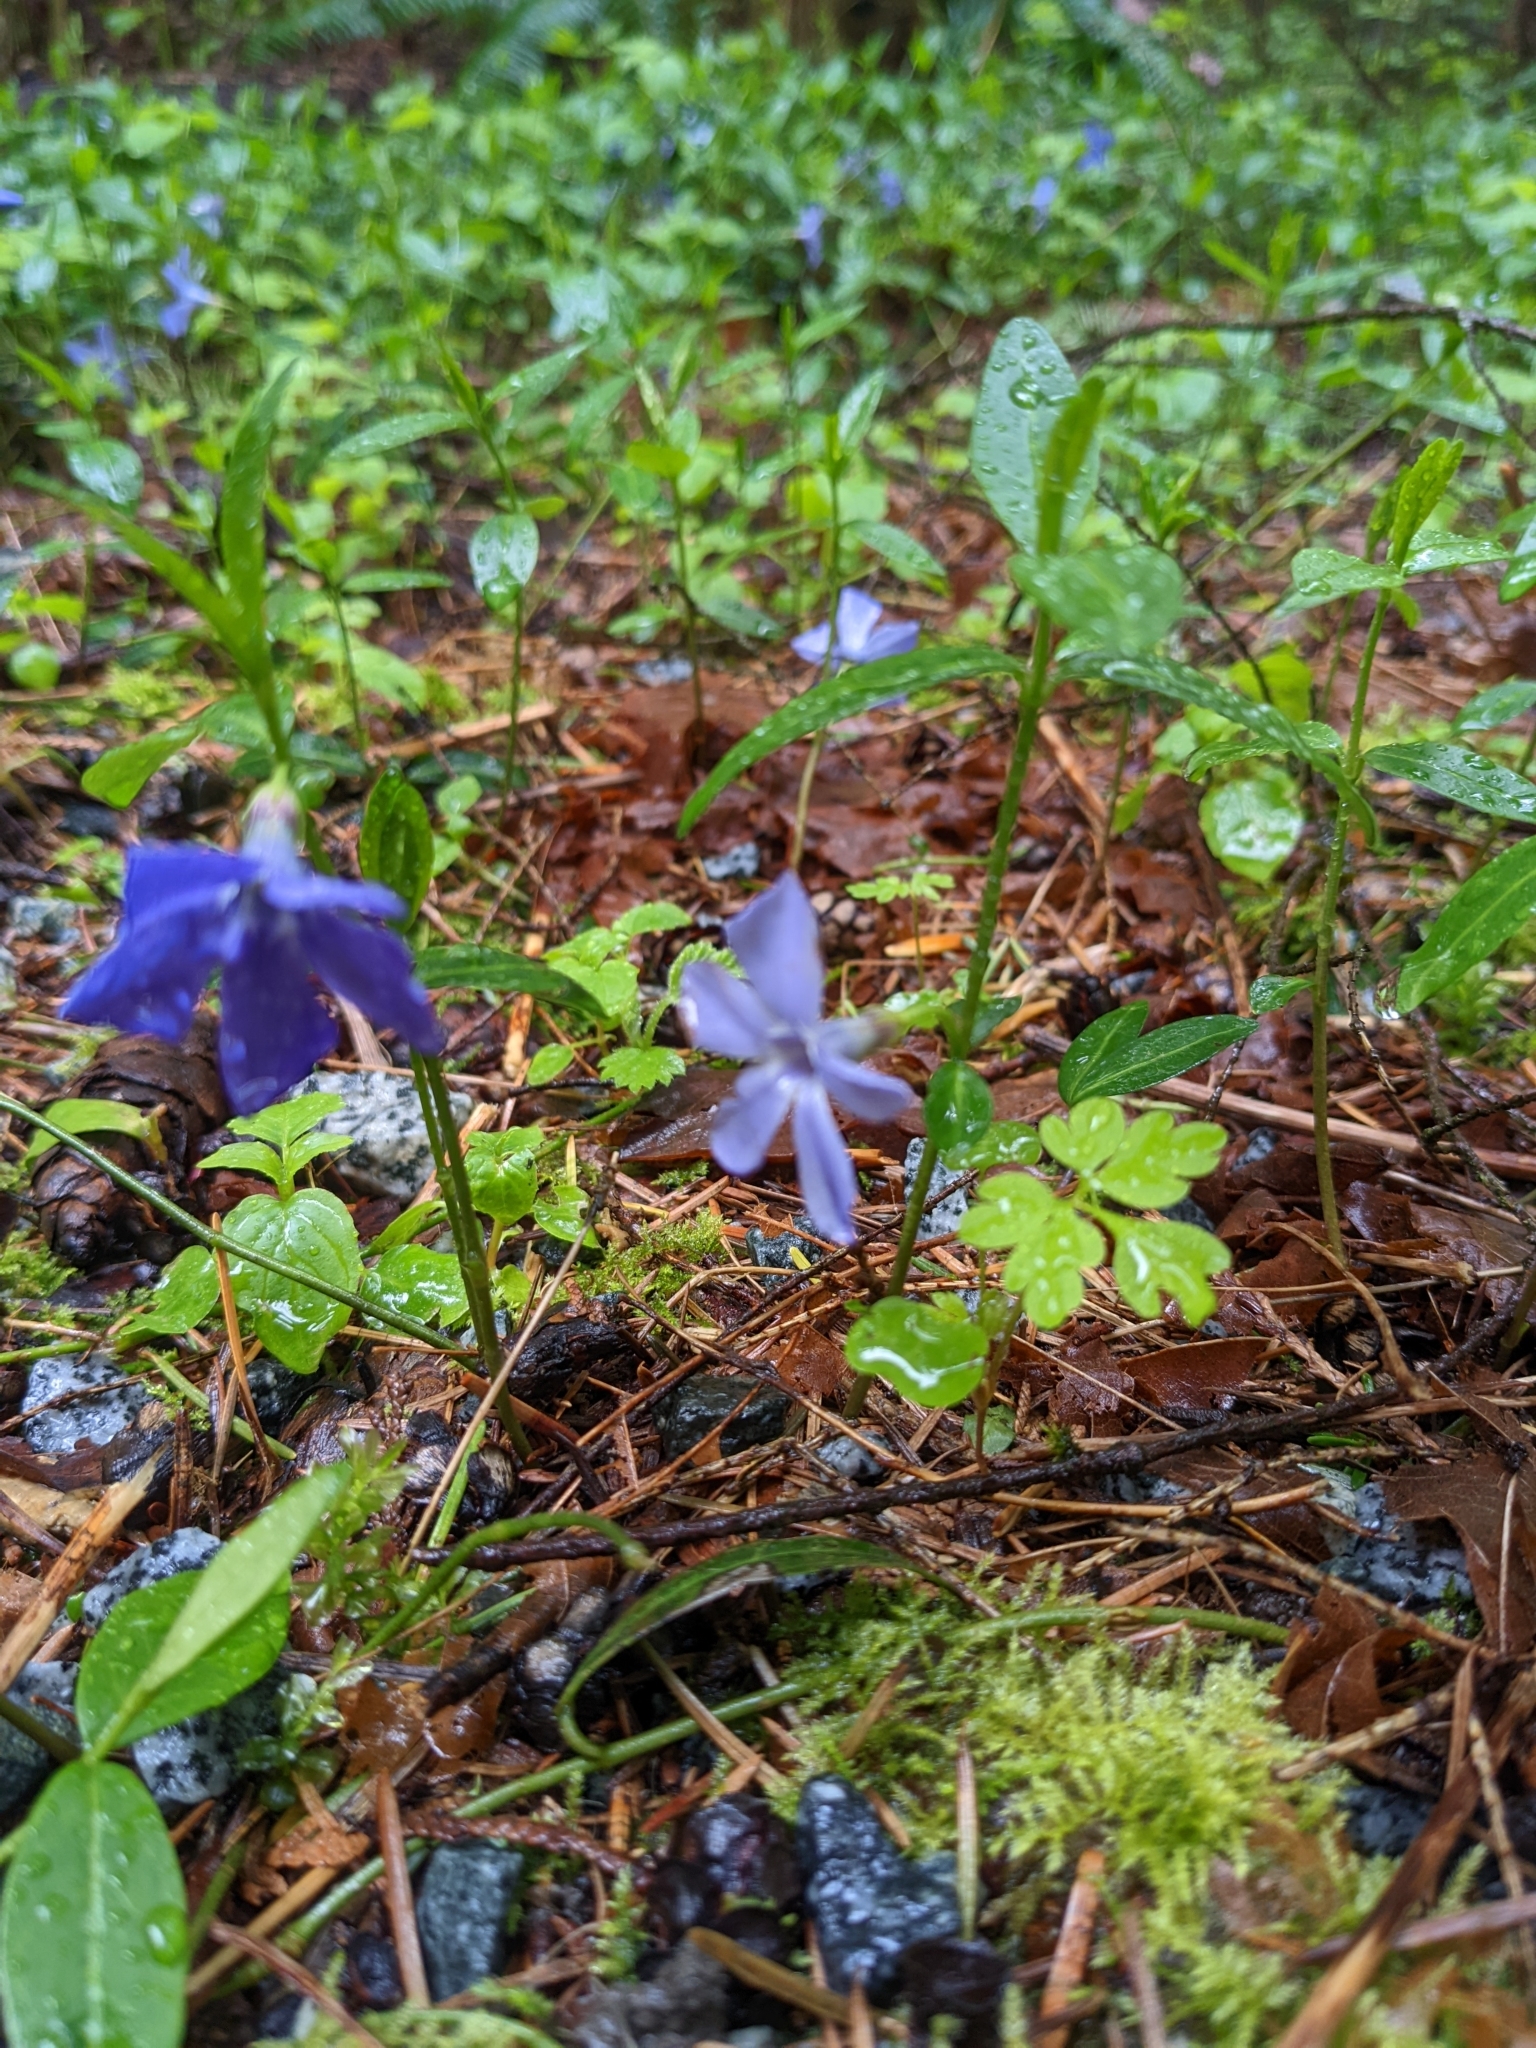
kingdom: Plantae
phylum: Tracheophyta
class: Magnoliopsida
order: Gentianales
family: Apocynaceae
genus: Vinca
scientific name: Vinca minor
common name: Lesser periwinkle
